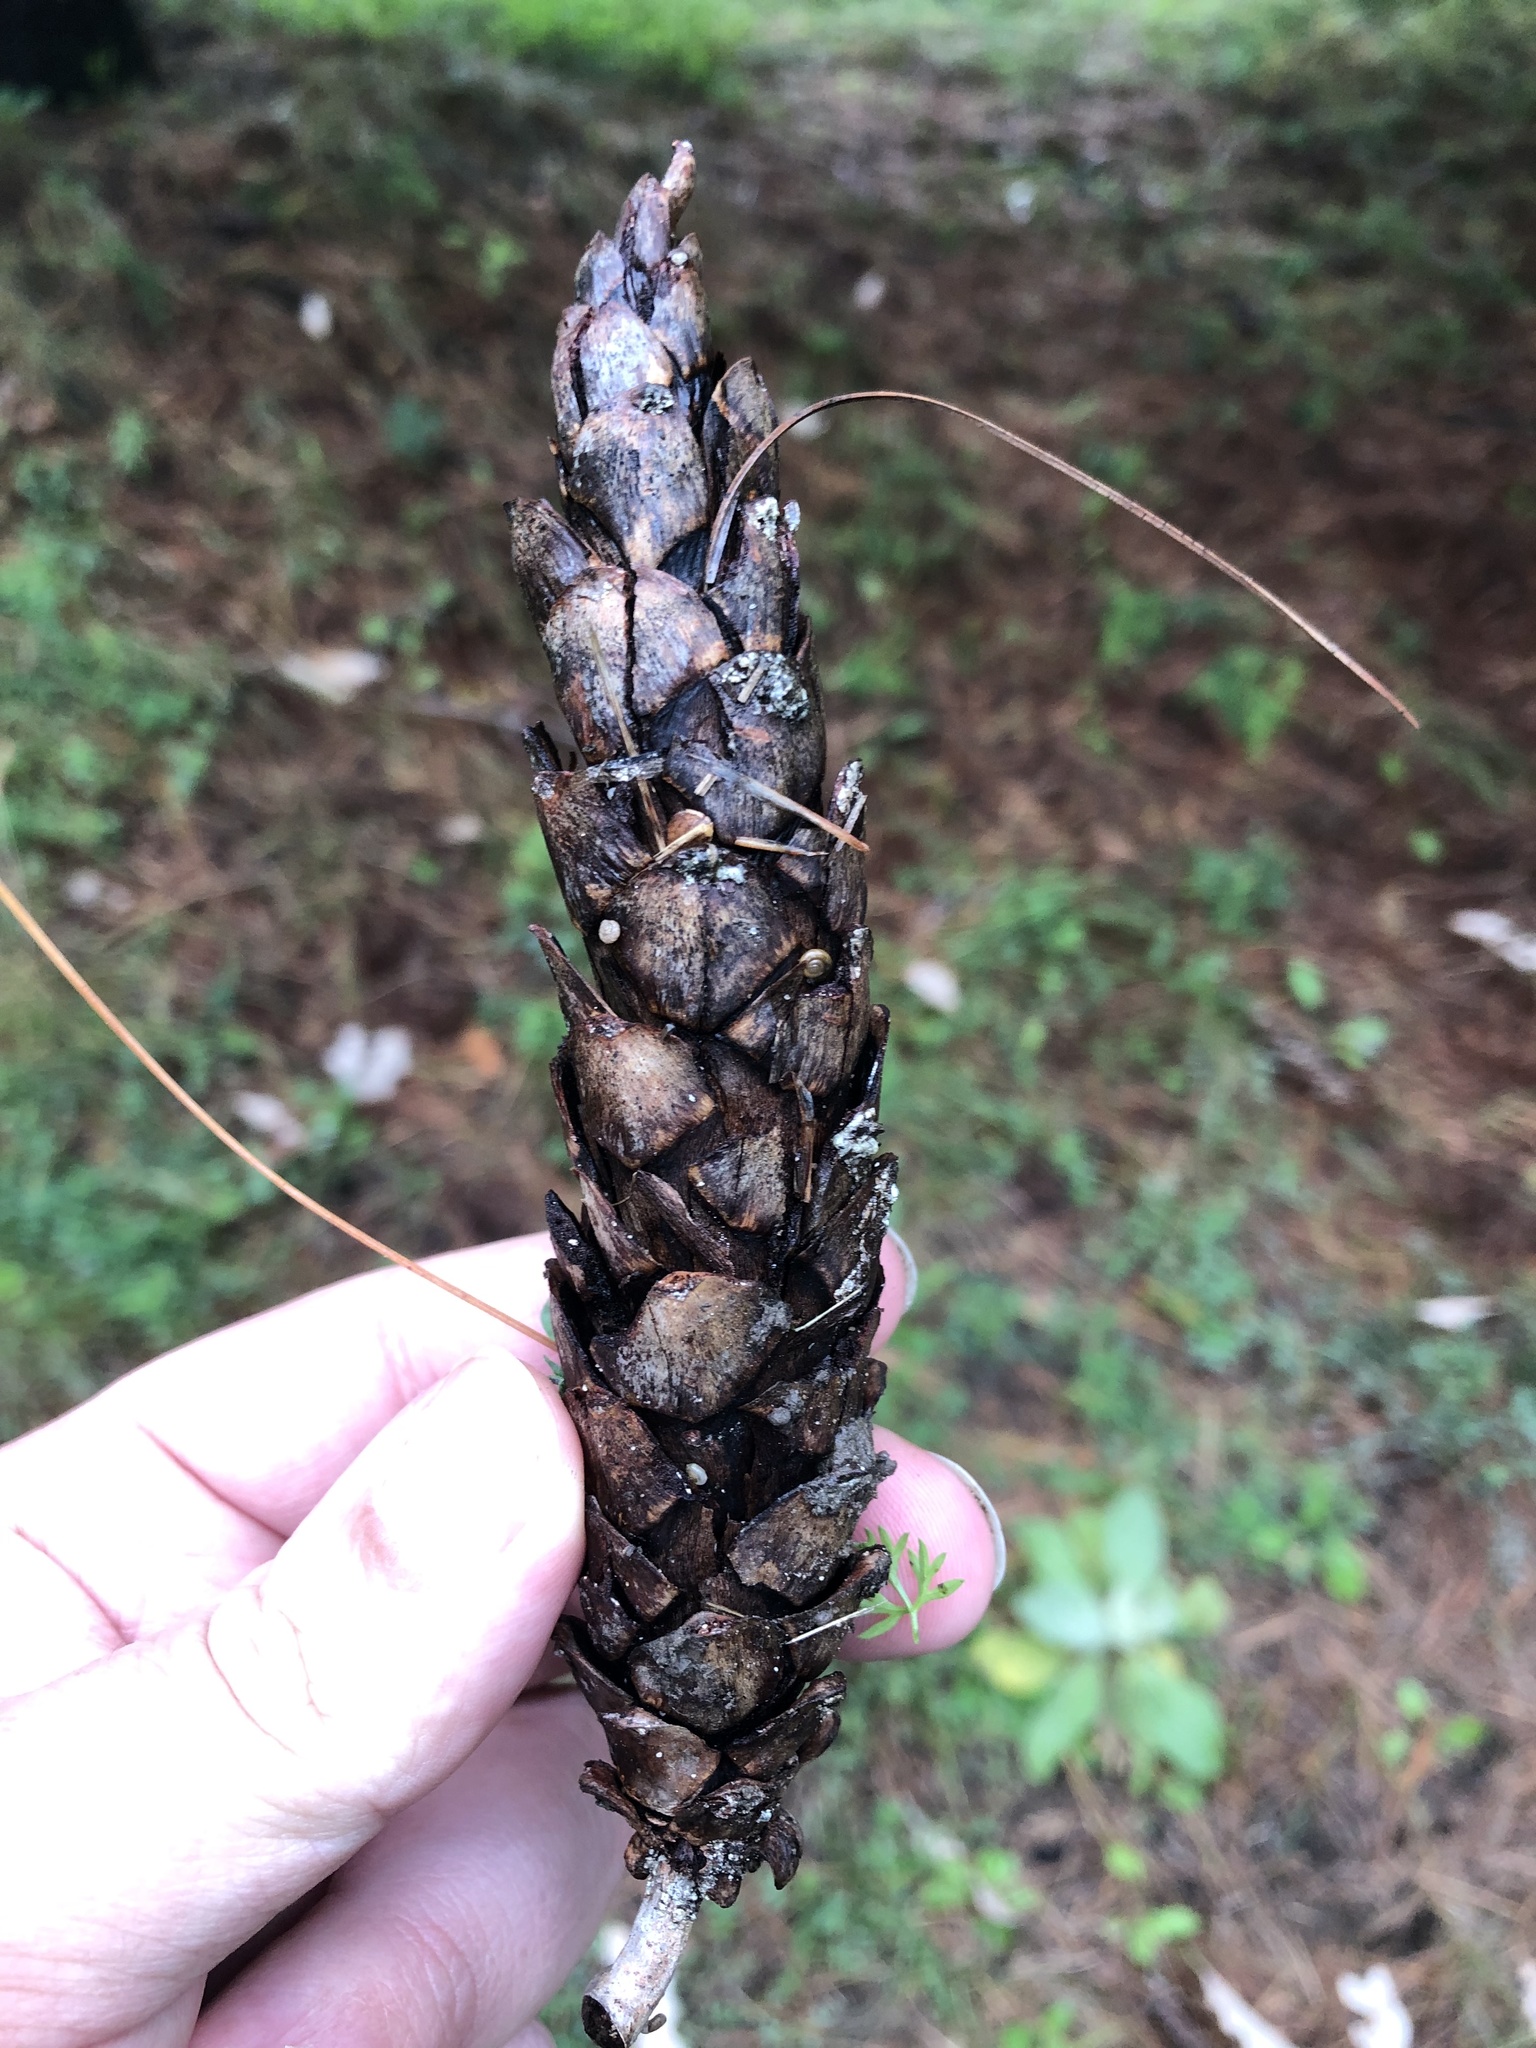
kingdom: Plantae
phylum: Tracheophyta
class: Pinopsida
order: Pinales
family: Pinaceae
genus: Pinus
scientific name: Pinus strobus
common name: Weymouth pine
